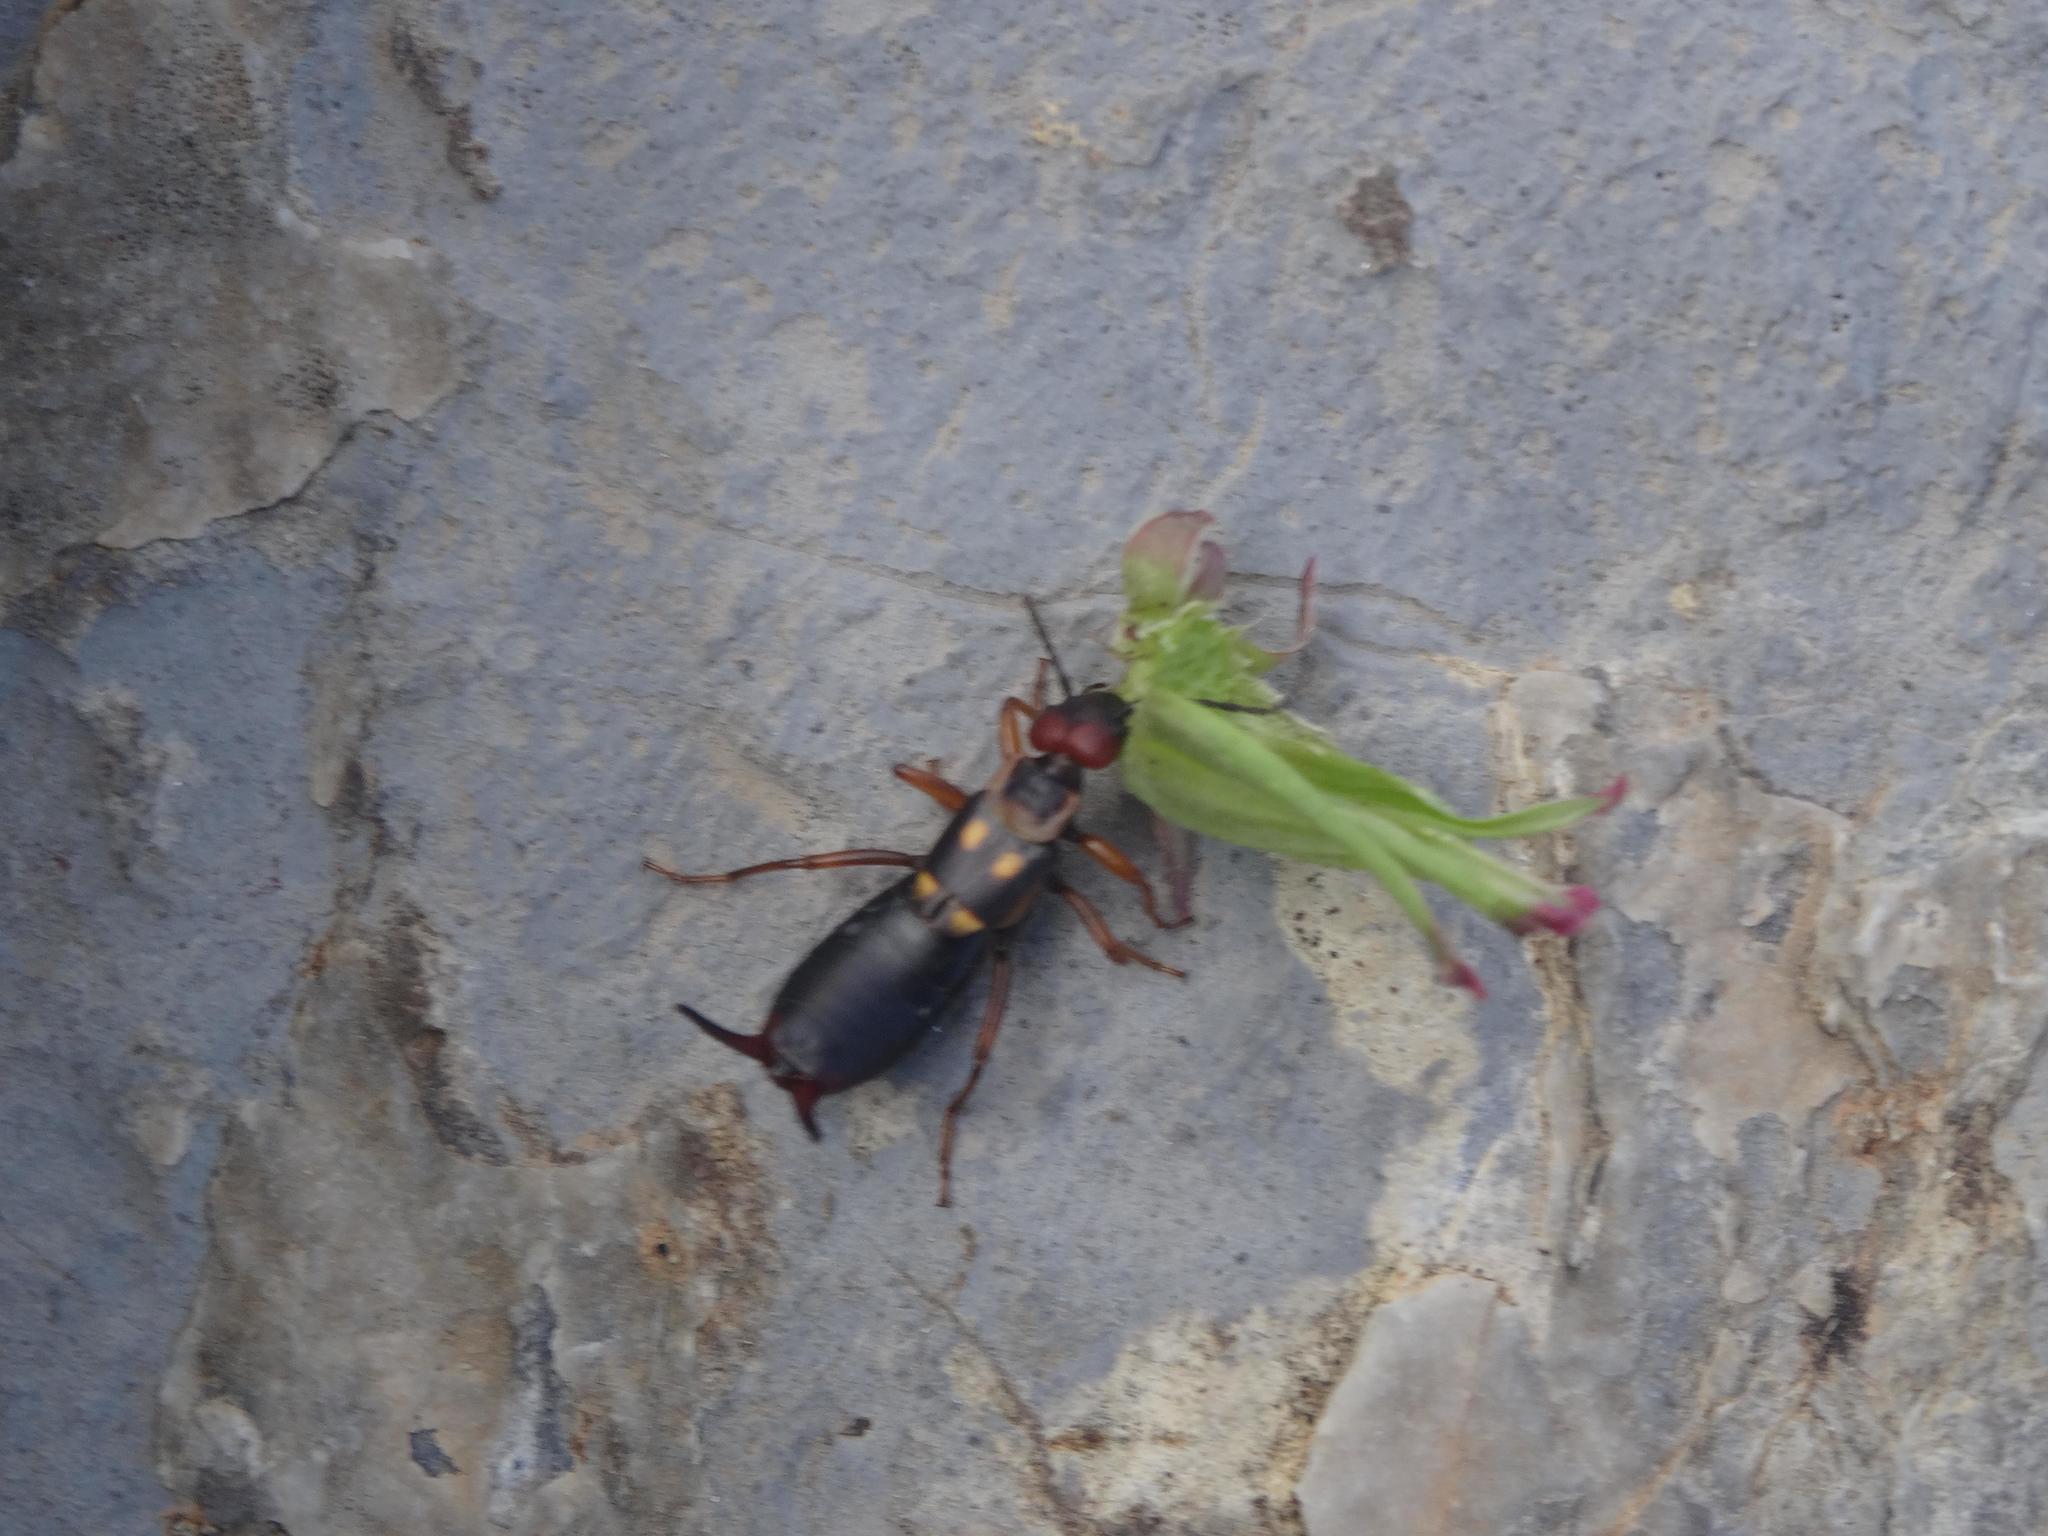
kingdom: Animalia
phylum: Arthropoda
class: Insecta
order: Dermaptera
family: Forficulidae
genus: Anechura
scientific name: Anechura bipunctata
